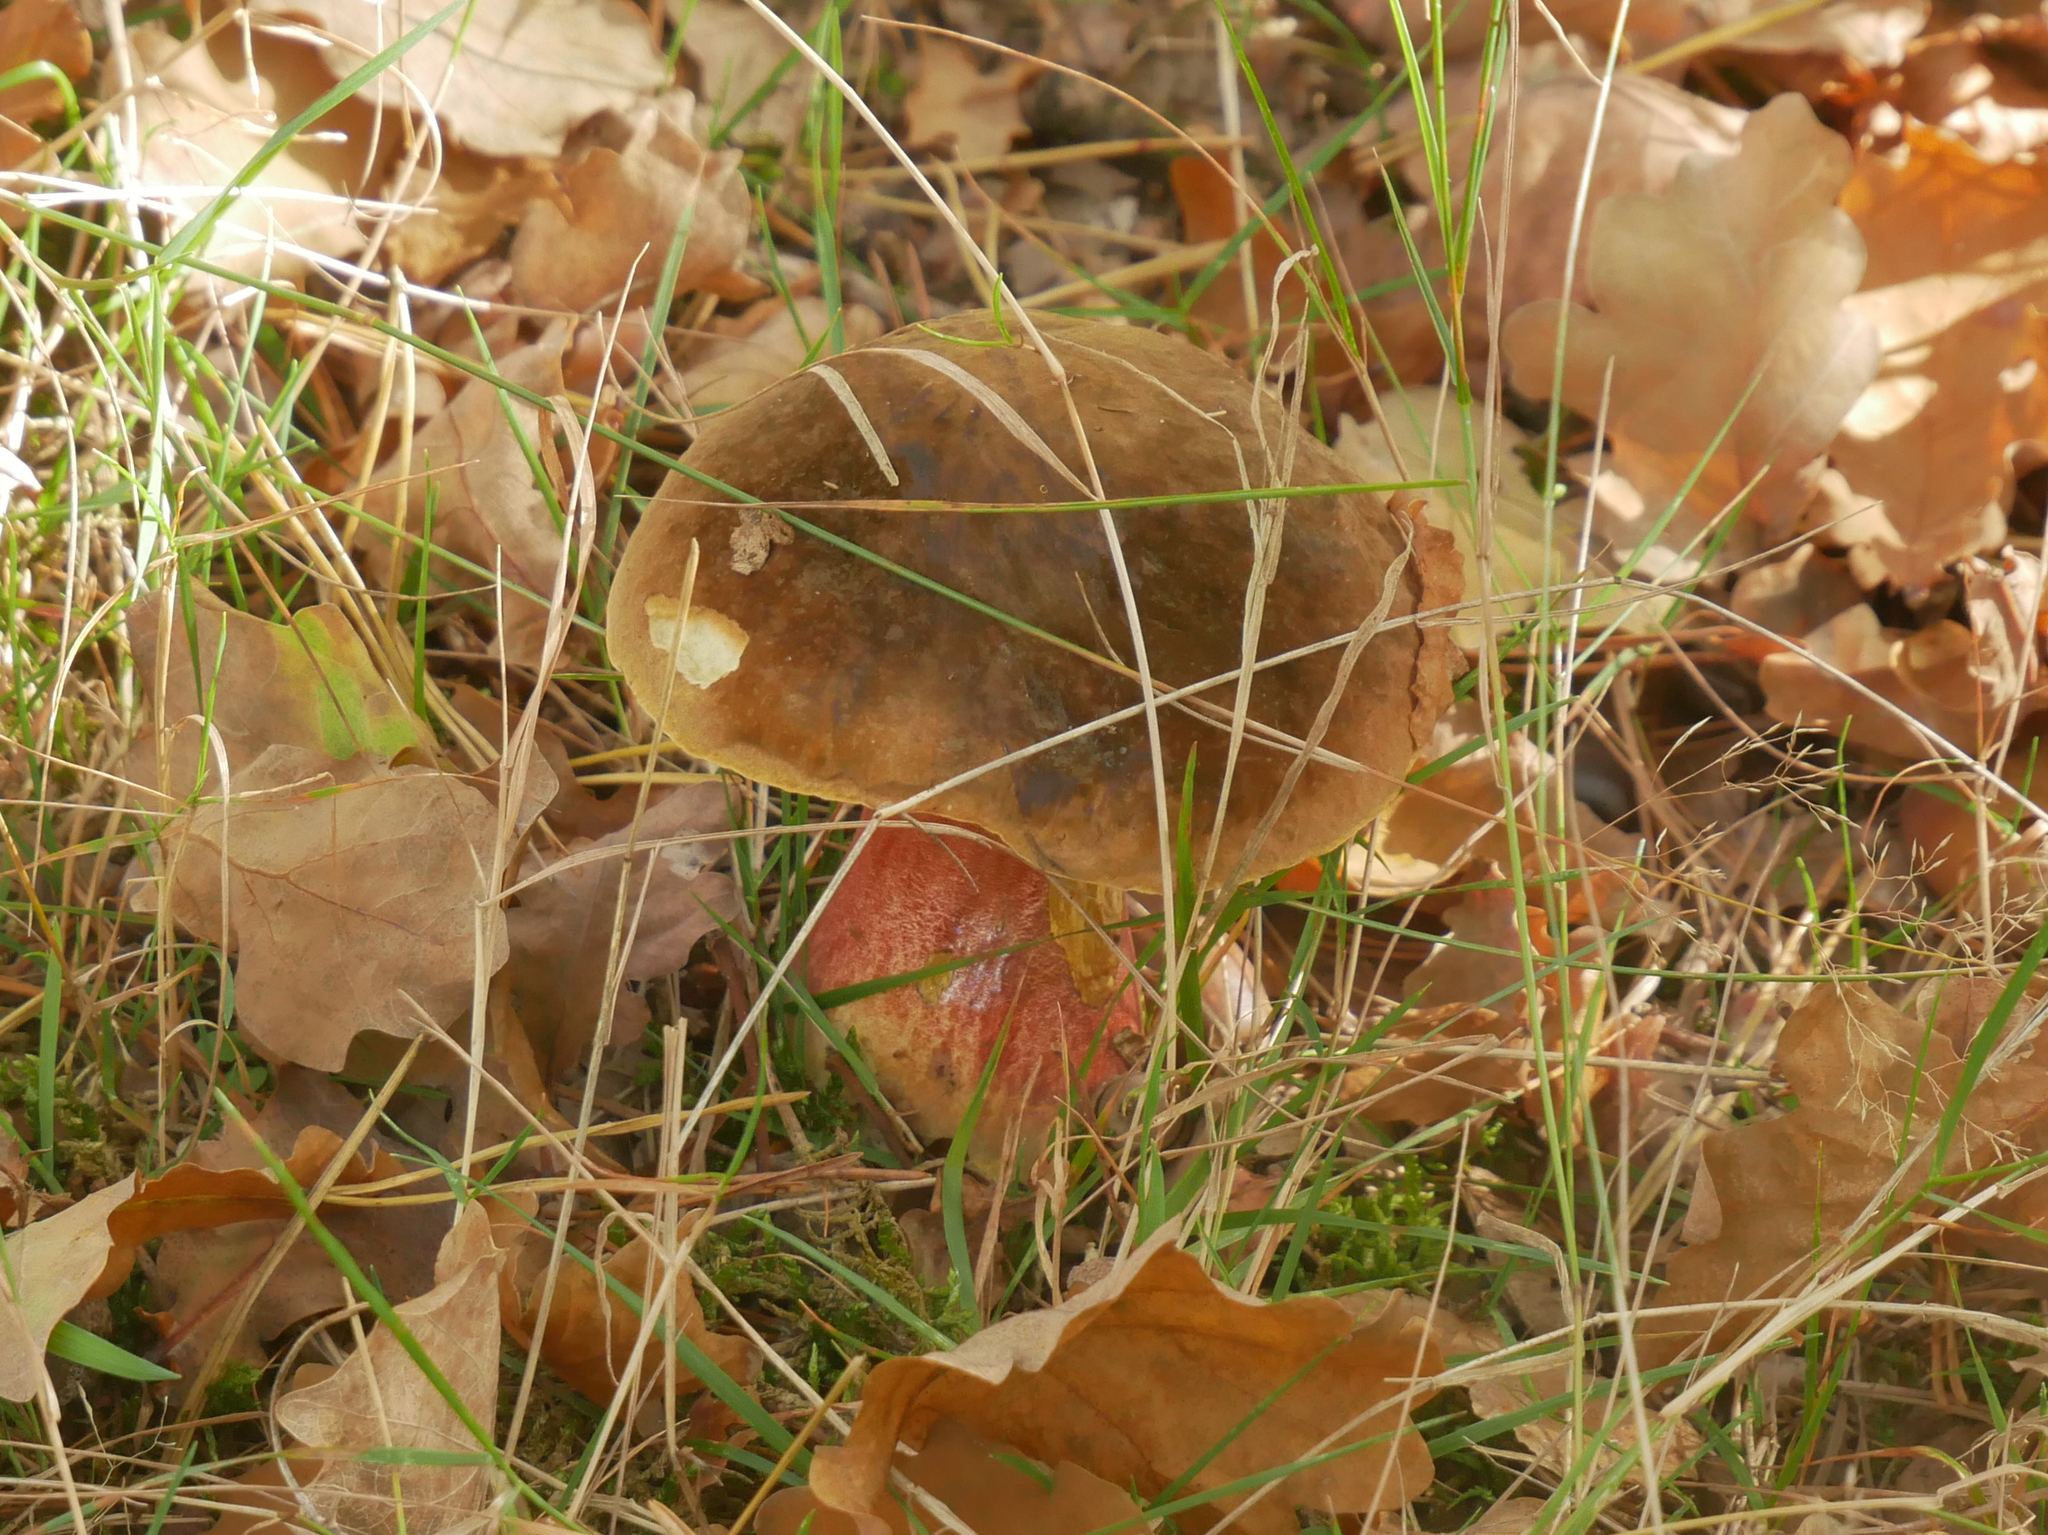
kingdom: Fungi
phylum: Basidiomycota
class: Agaricomycetes
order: Boletales
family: Boletaceae
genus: Neoboletus
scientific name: Neoboletus erythropus
